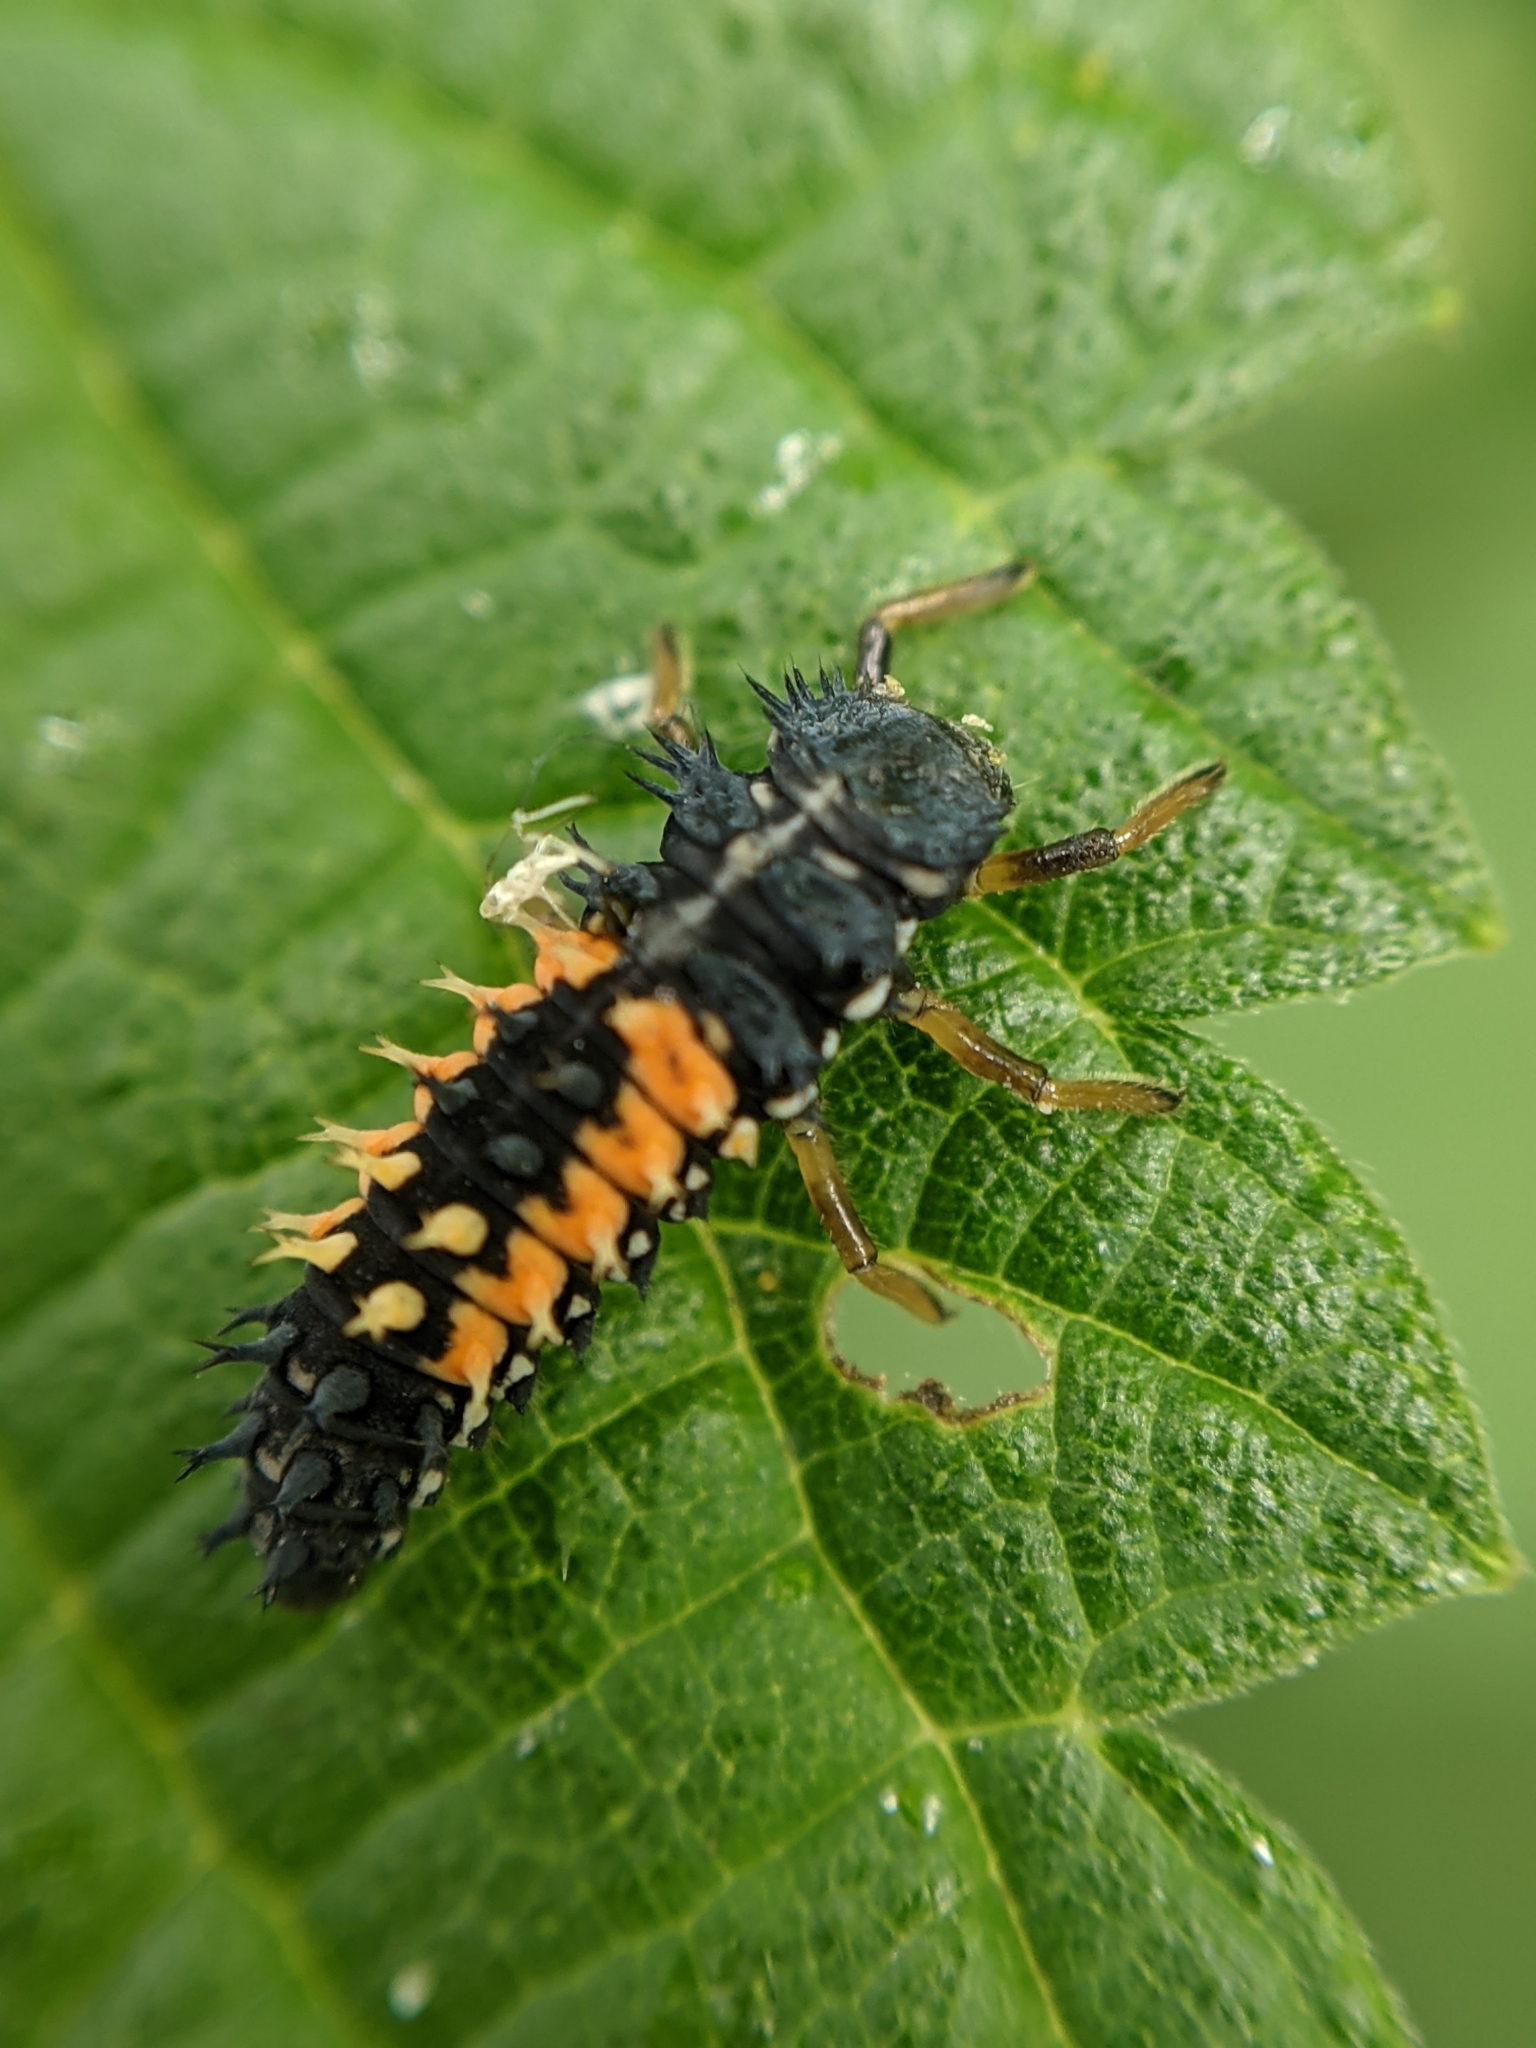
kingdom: Animalia
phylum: Arthropoda
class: Insecta
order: Coleoptera
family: Coccinellidae
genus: Harmonia
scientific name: Harmonia axyridis
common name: Harlequin ladybird
